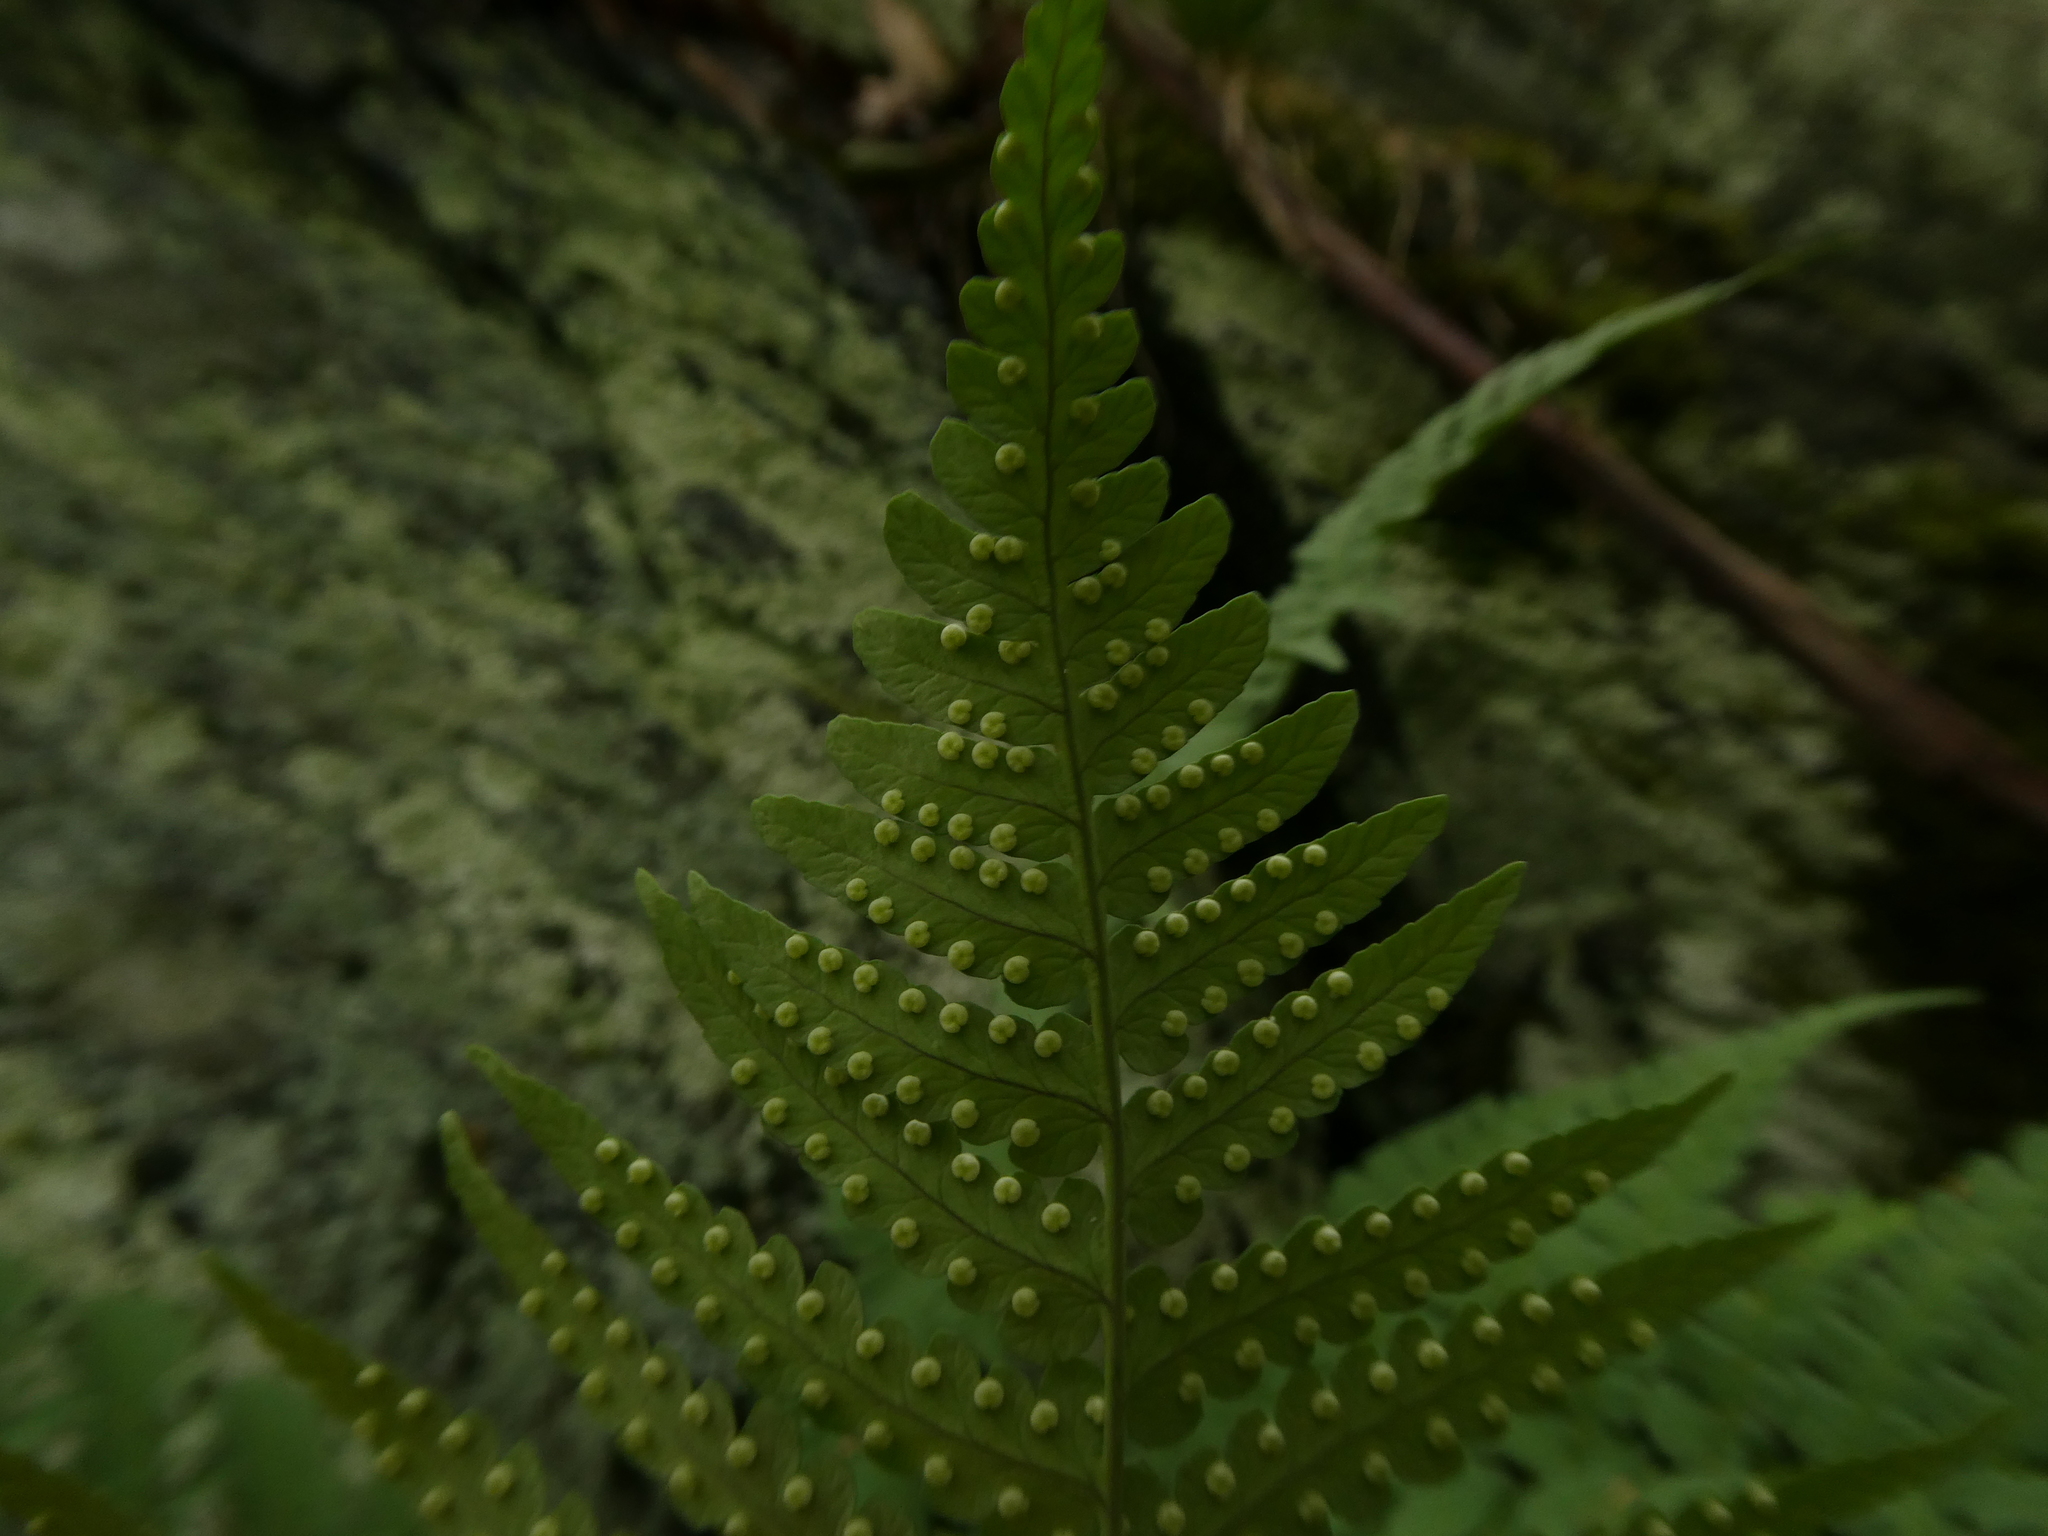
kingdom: Plantae
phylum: Tracheophyta
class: Polypodiopsida
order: Polypodiales
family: Dryopteridaceae
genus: Dryopteris
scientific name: Dryopteris marginalis
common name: Marginal wood fern
